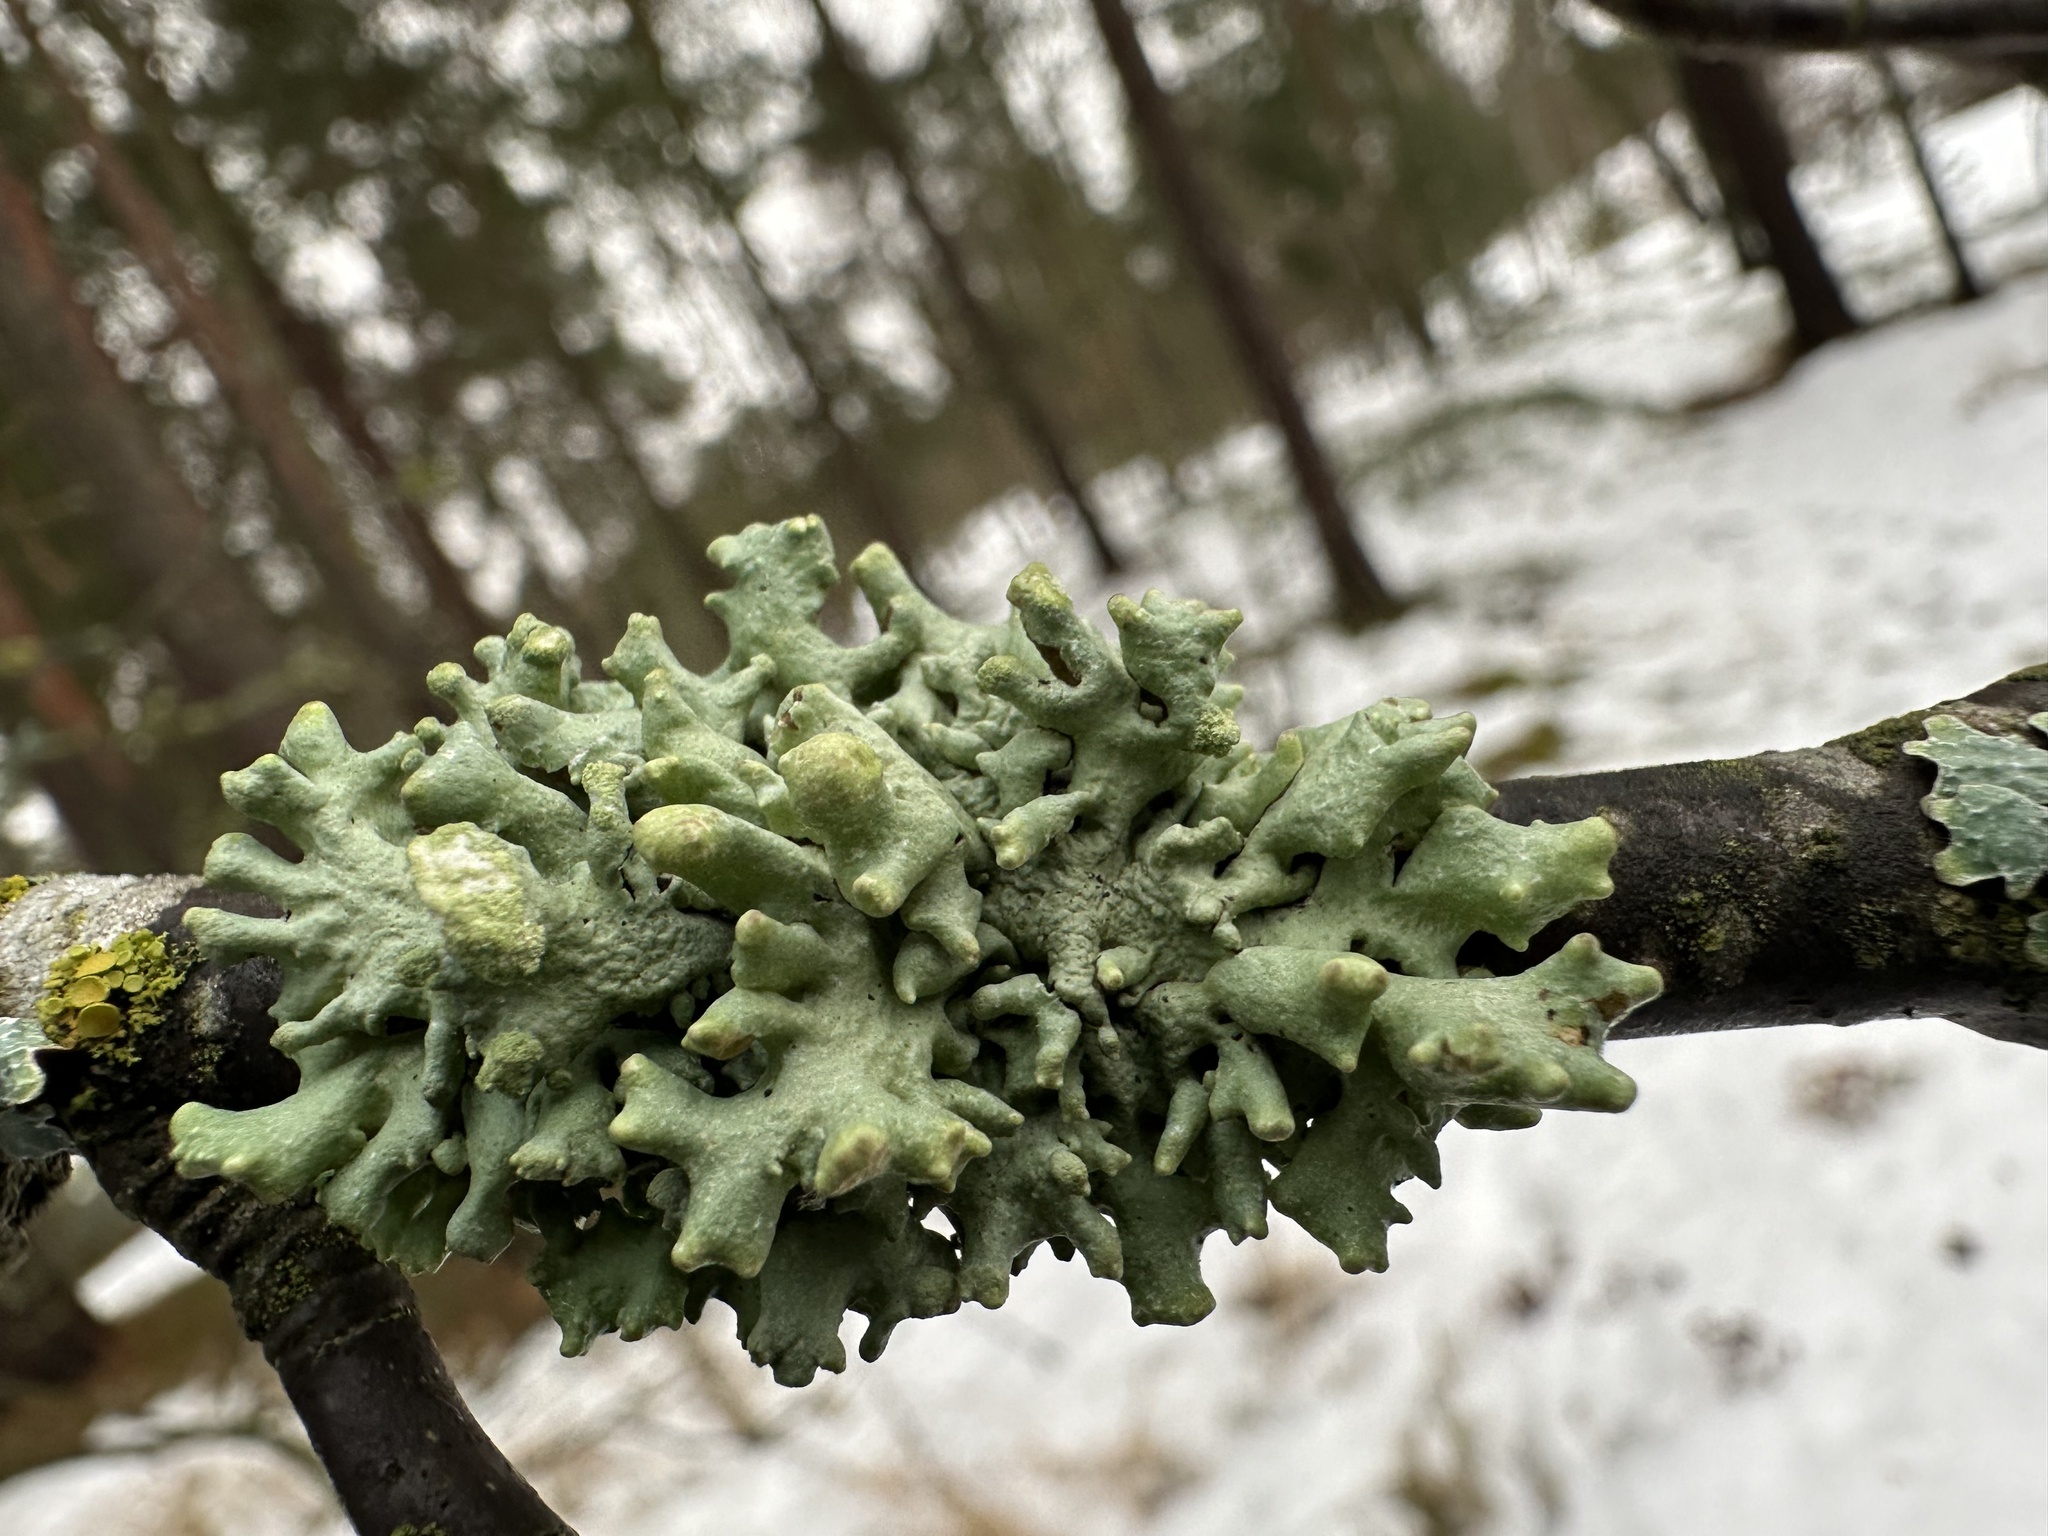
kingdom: Fungi
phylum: Ascomycota
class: Lecanoromycetes
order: Lecanorales
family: Parmeliaceae
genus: Hypogymnia
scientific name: Hypogymnia tubulosa
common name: Powder-headed tube lichen
